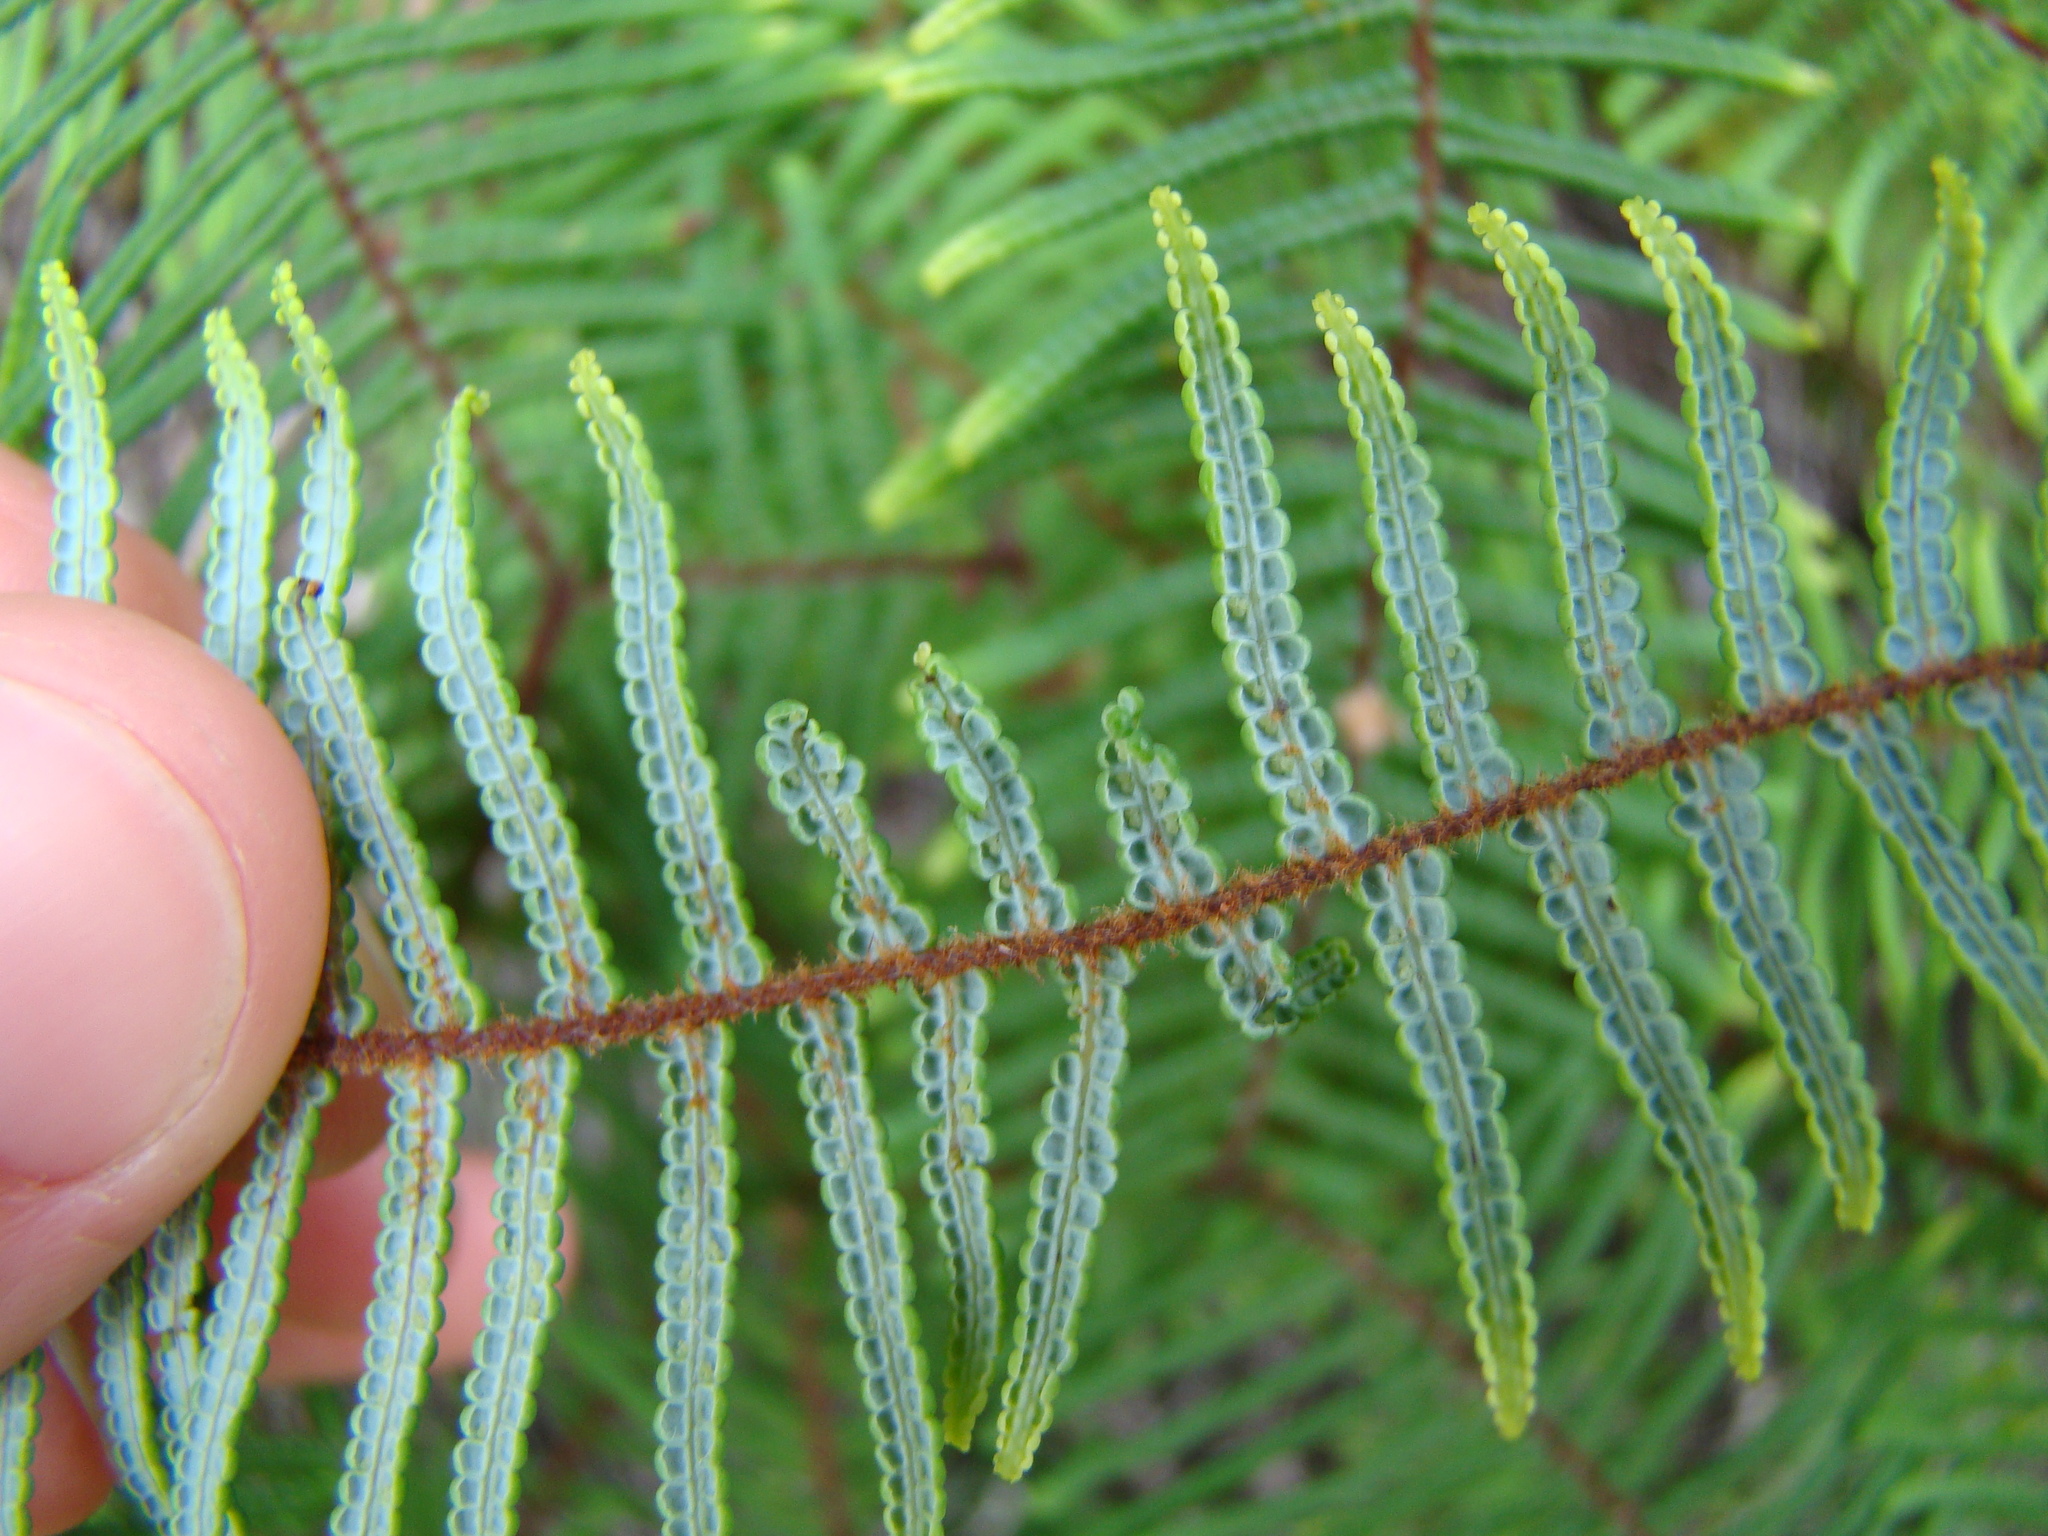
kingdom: Plantae
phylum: Tracheophyta
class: Polypodiopsida
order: Gleicheniales
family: Gleicheniaceae
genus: Gleichenia
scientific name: Gleichenia dicarpa
